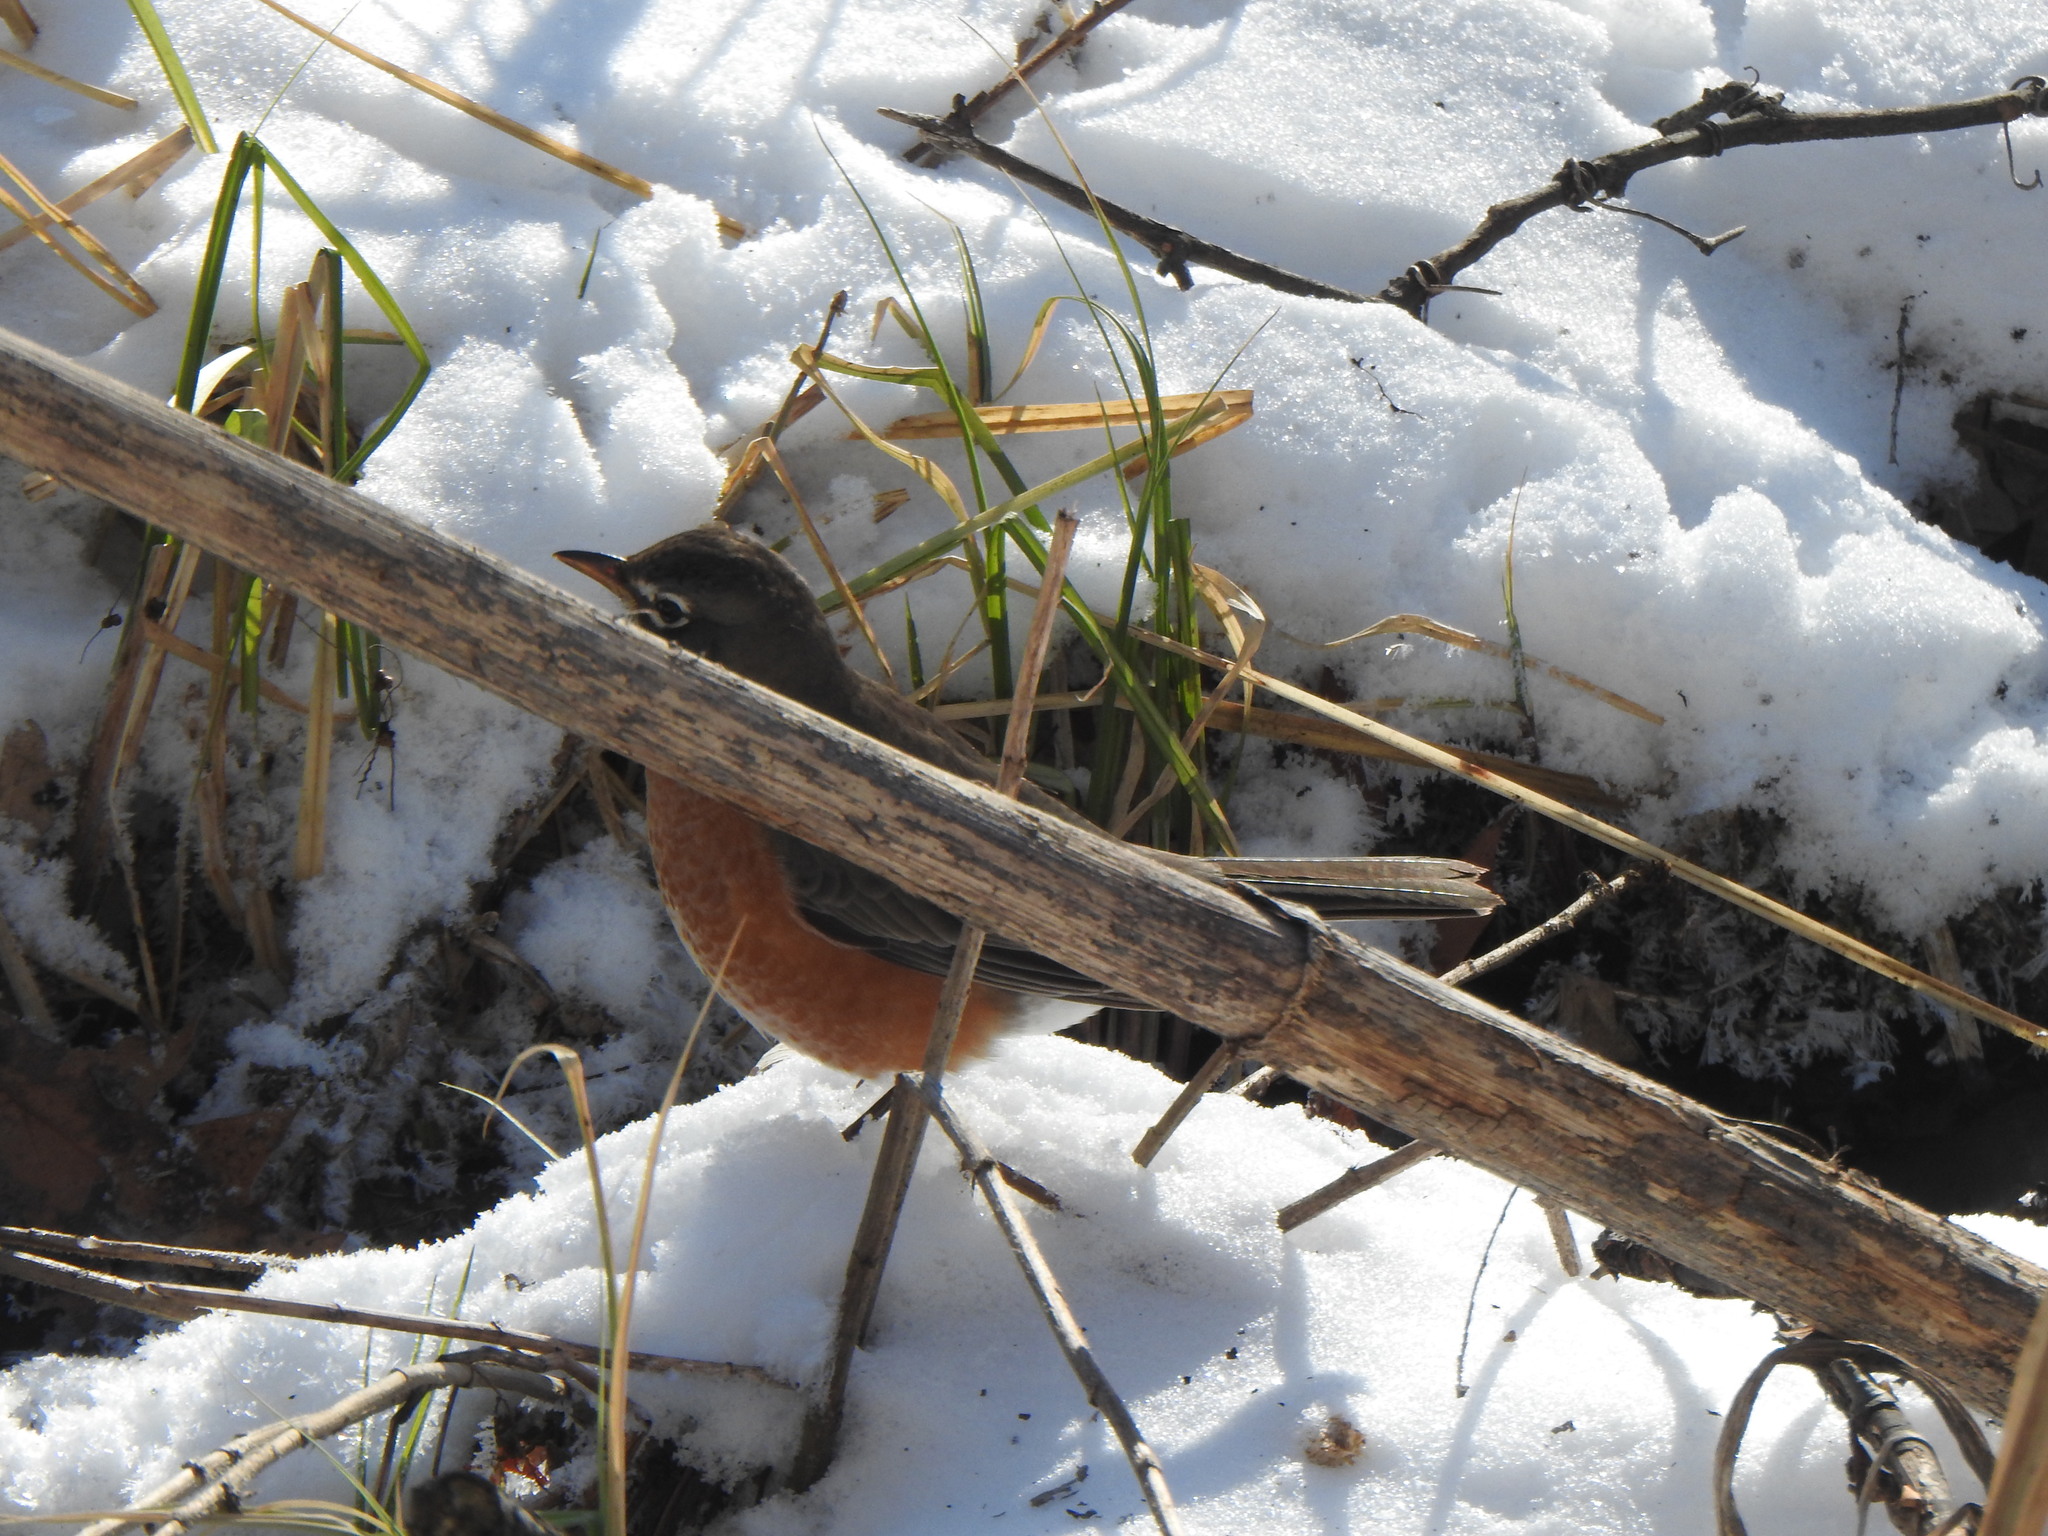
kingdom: Animalia
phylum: Chordata
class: Aves
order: Passeriformes
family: Turdidae
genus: Turdus
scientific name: Turdus migratorius
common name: American robin
